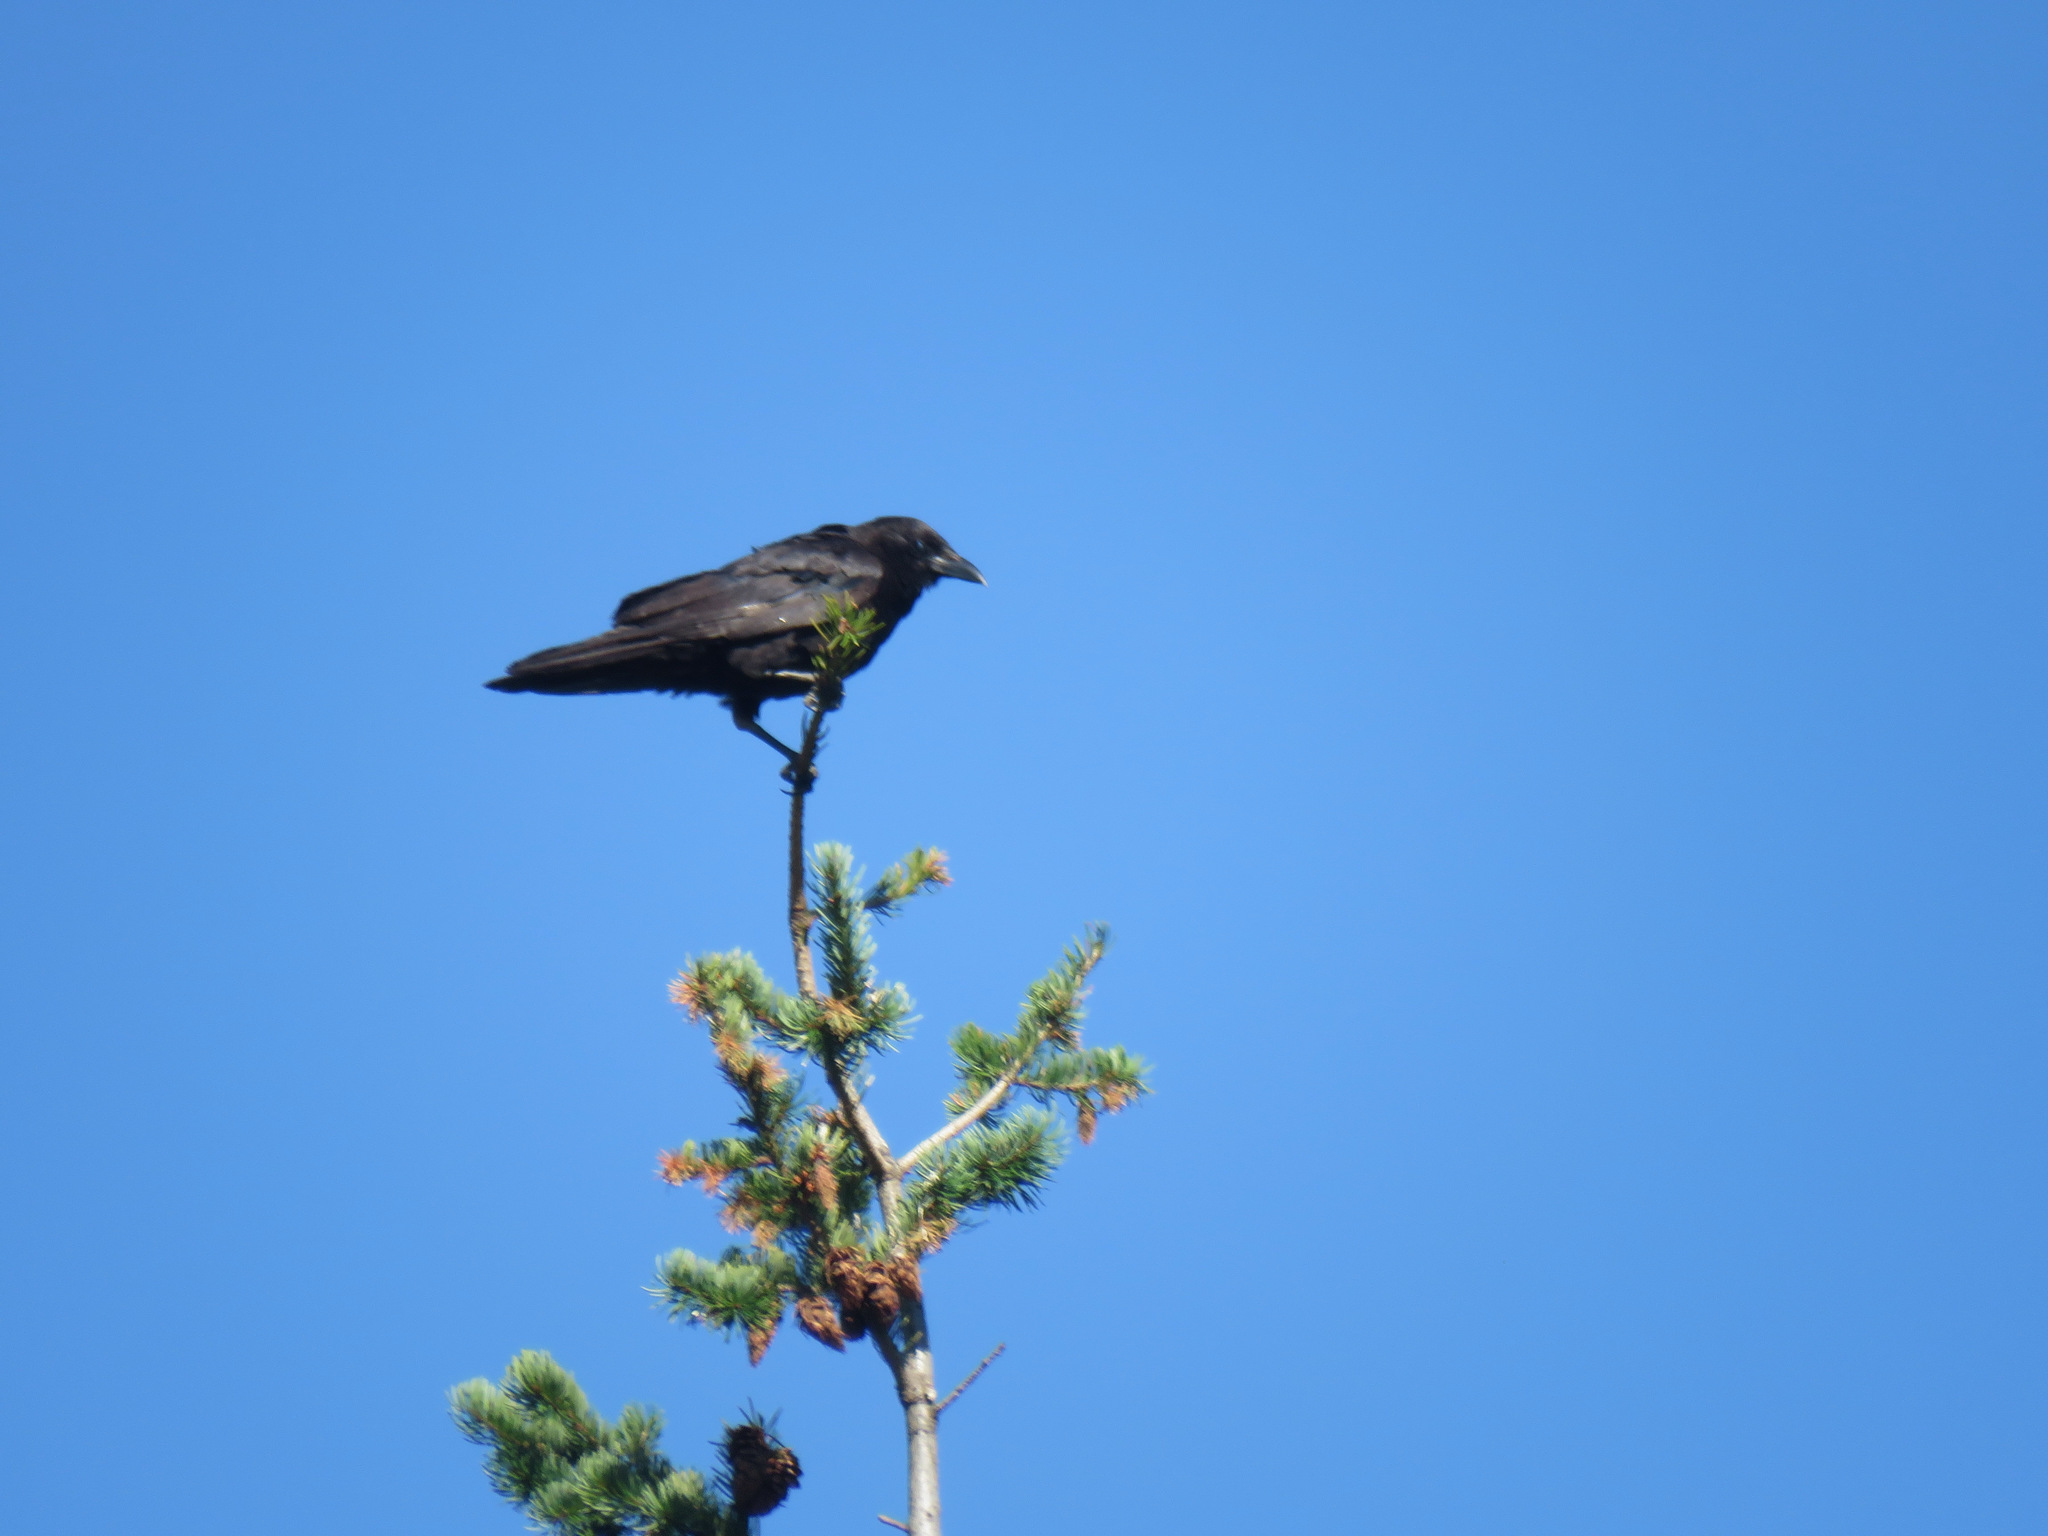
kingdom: Animalia
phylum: Chordata
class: Aves
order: Passeriformes
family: Corvidae
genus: Corvus
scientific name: Corvus brachyrhynchos
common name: American crow
